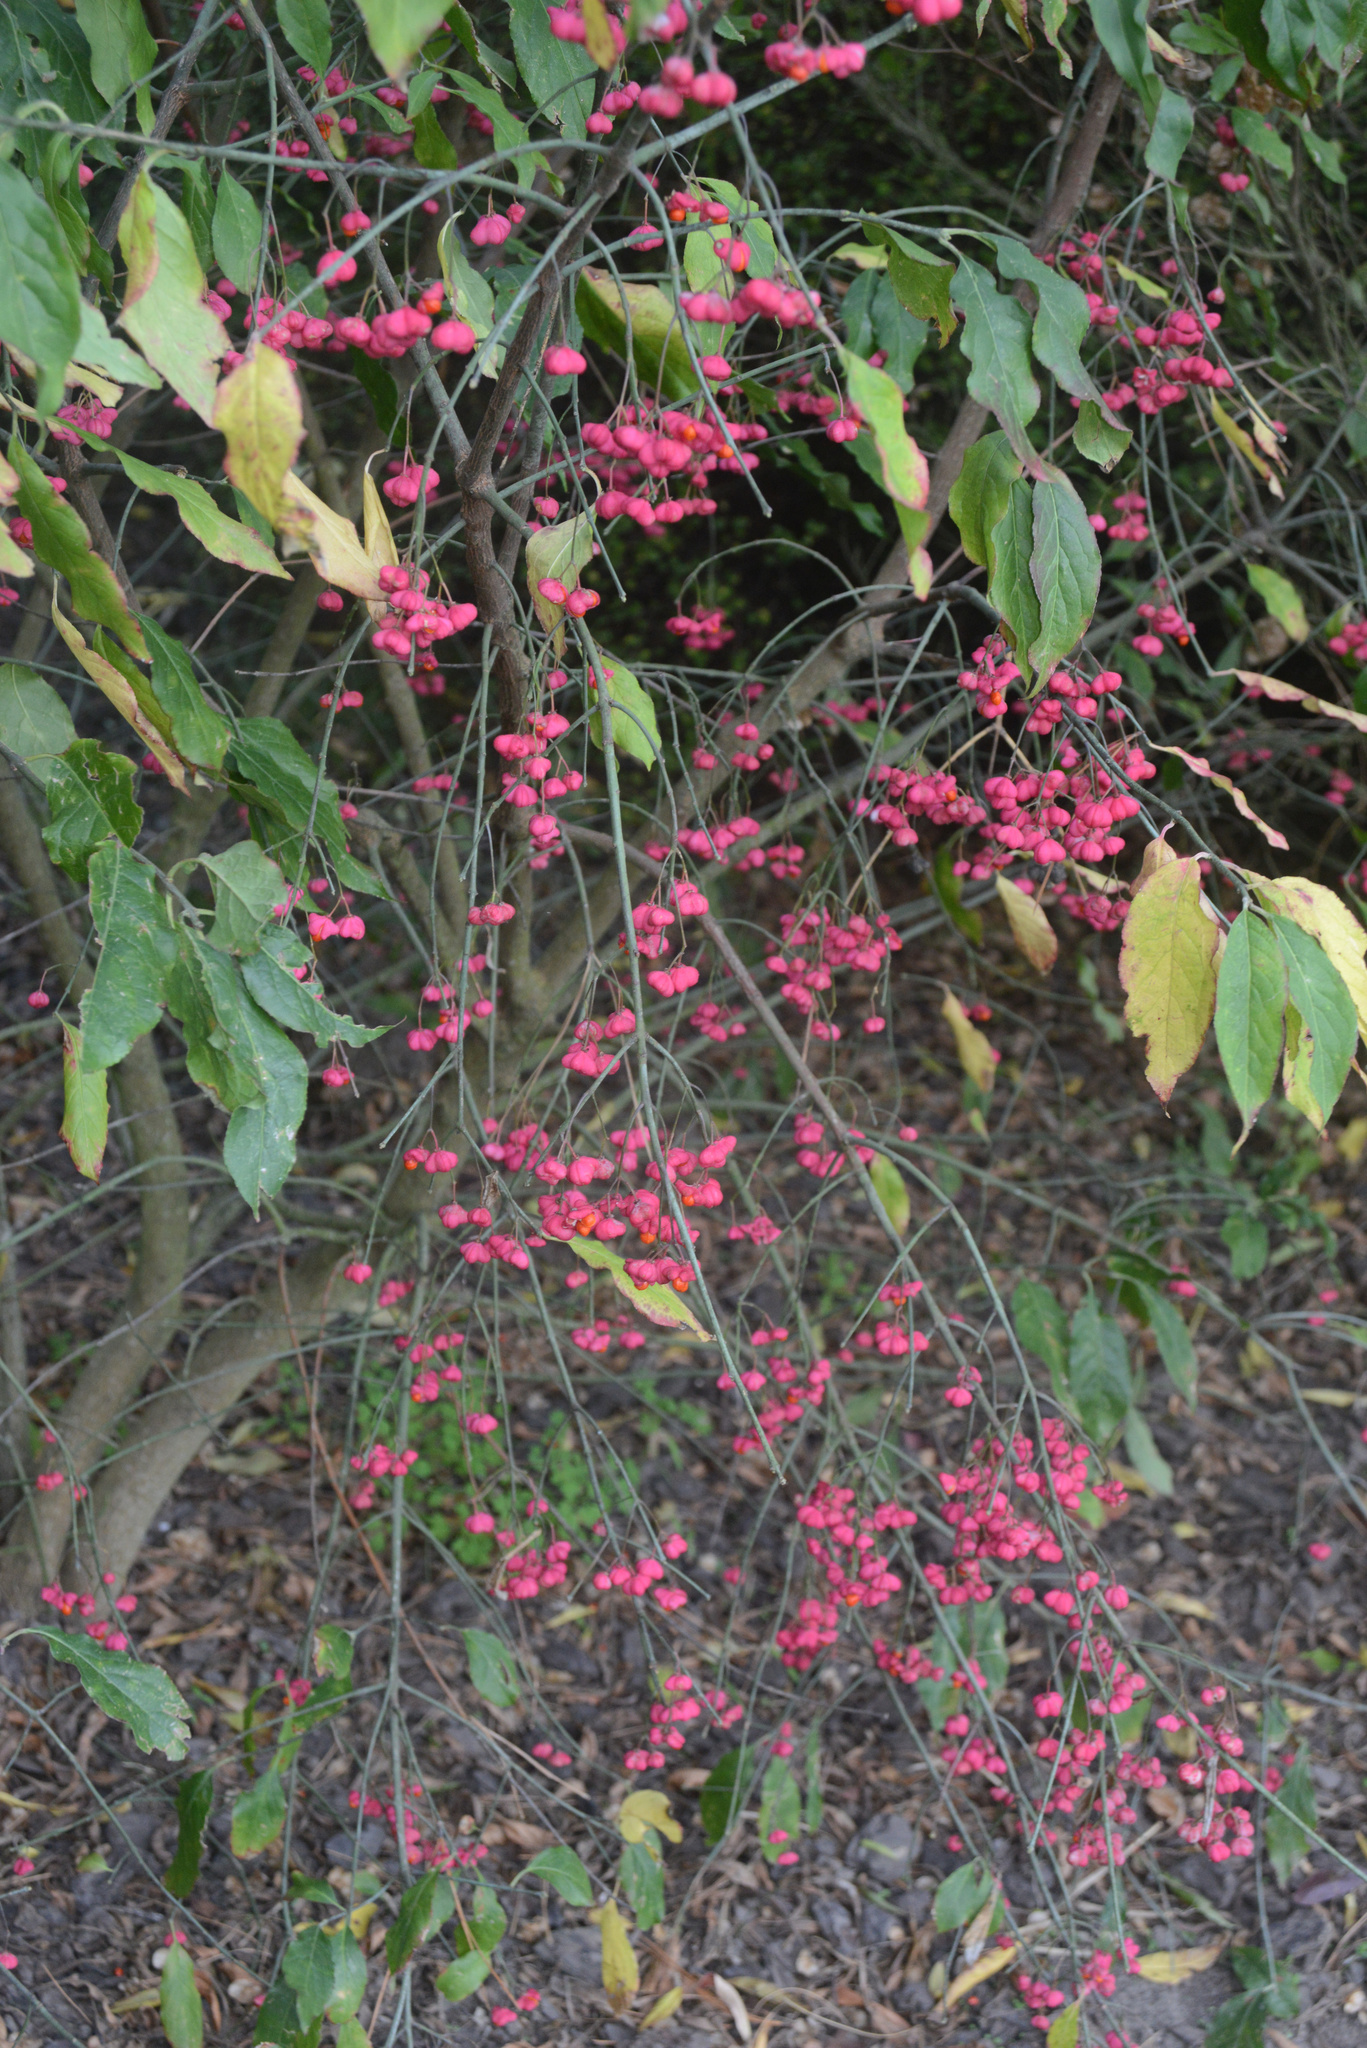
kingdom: Plantae
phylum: Tracheophyta
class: Magnoliopsida
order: Celastrales
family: Celastraceae
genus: Euonymus
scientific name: Euonymus europaeus
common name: Spindle
